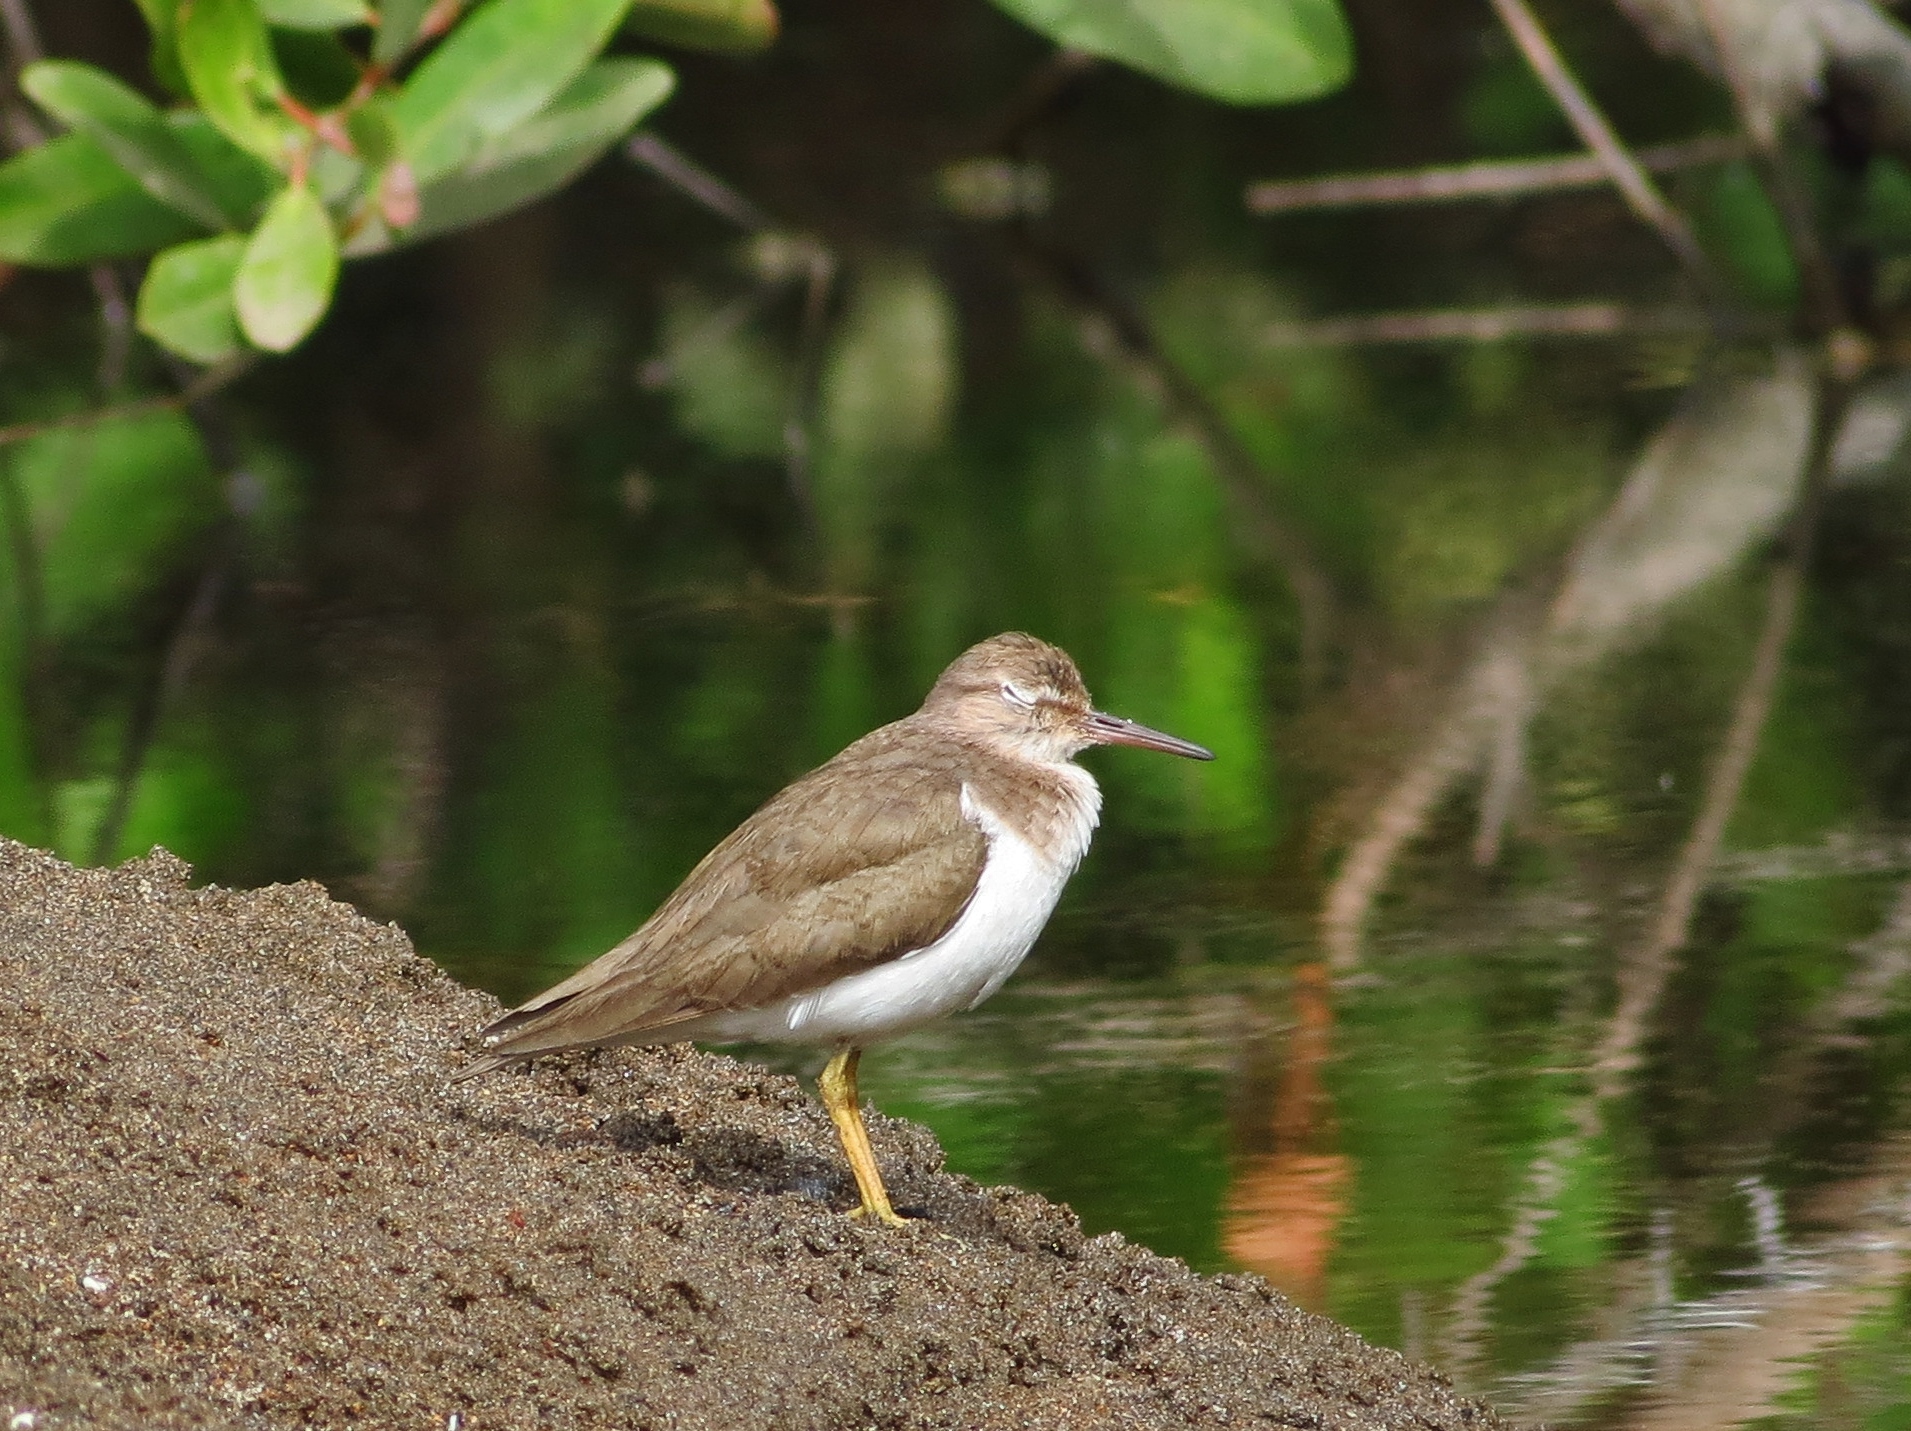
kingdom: Animalia
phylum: Chordata
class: Aves
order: Charadriiformes
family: Scolopacidae
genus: Actitis
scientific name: Actitis macularius
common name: Spotted sandpiper
